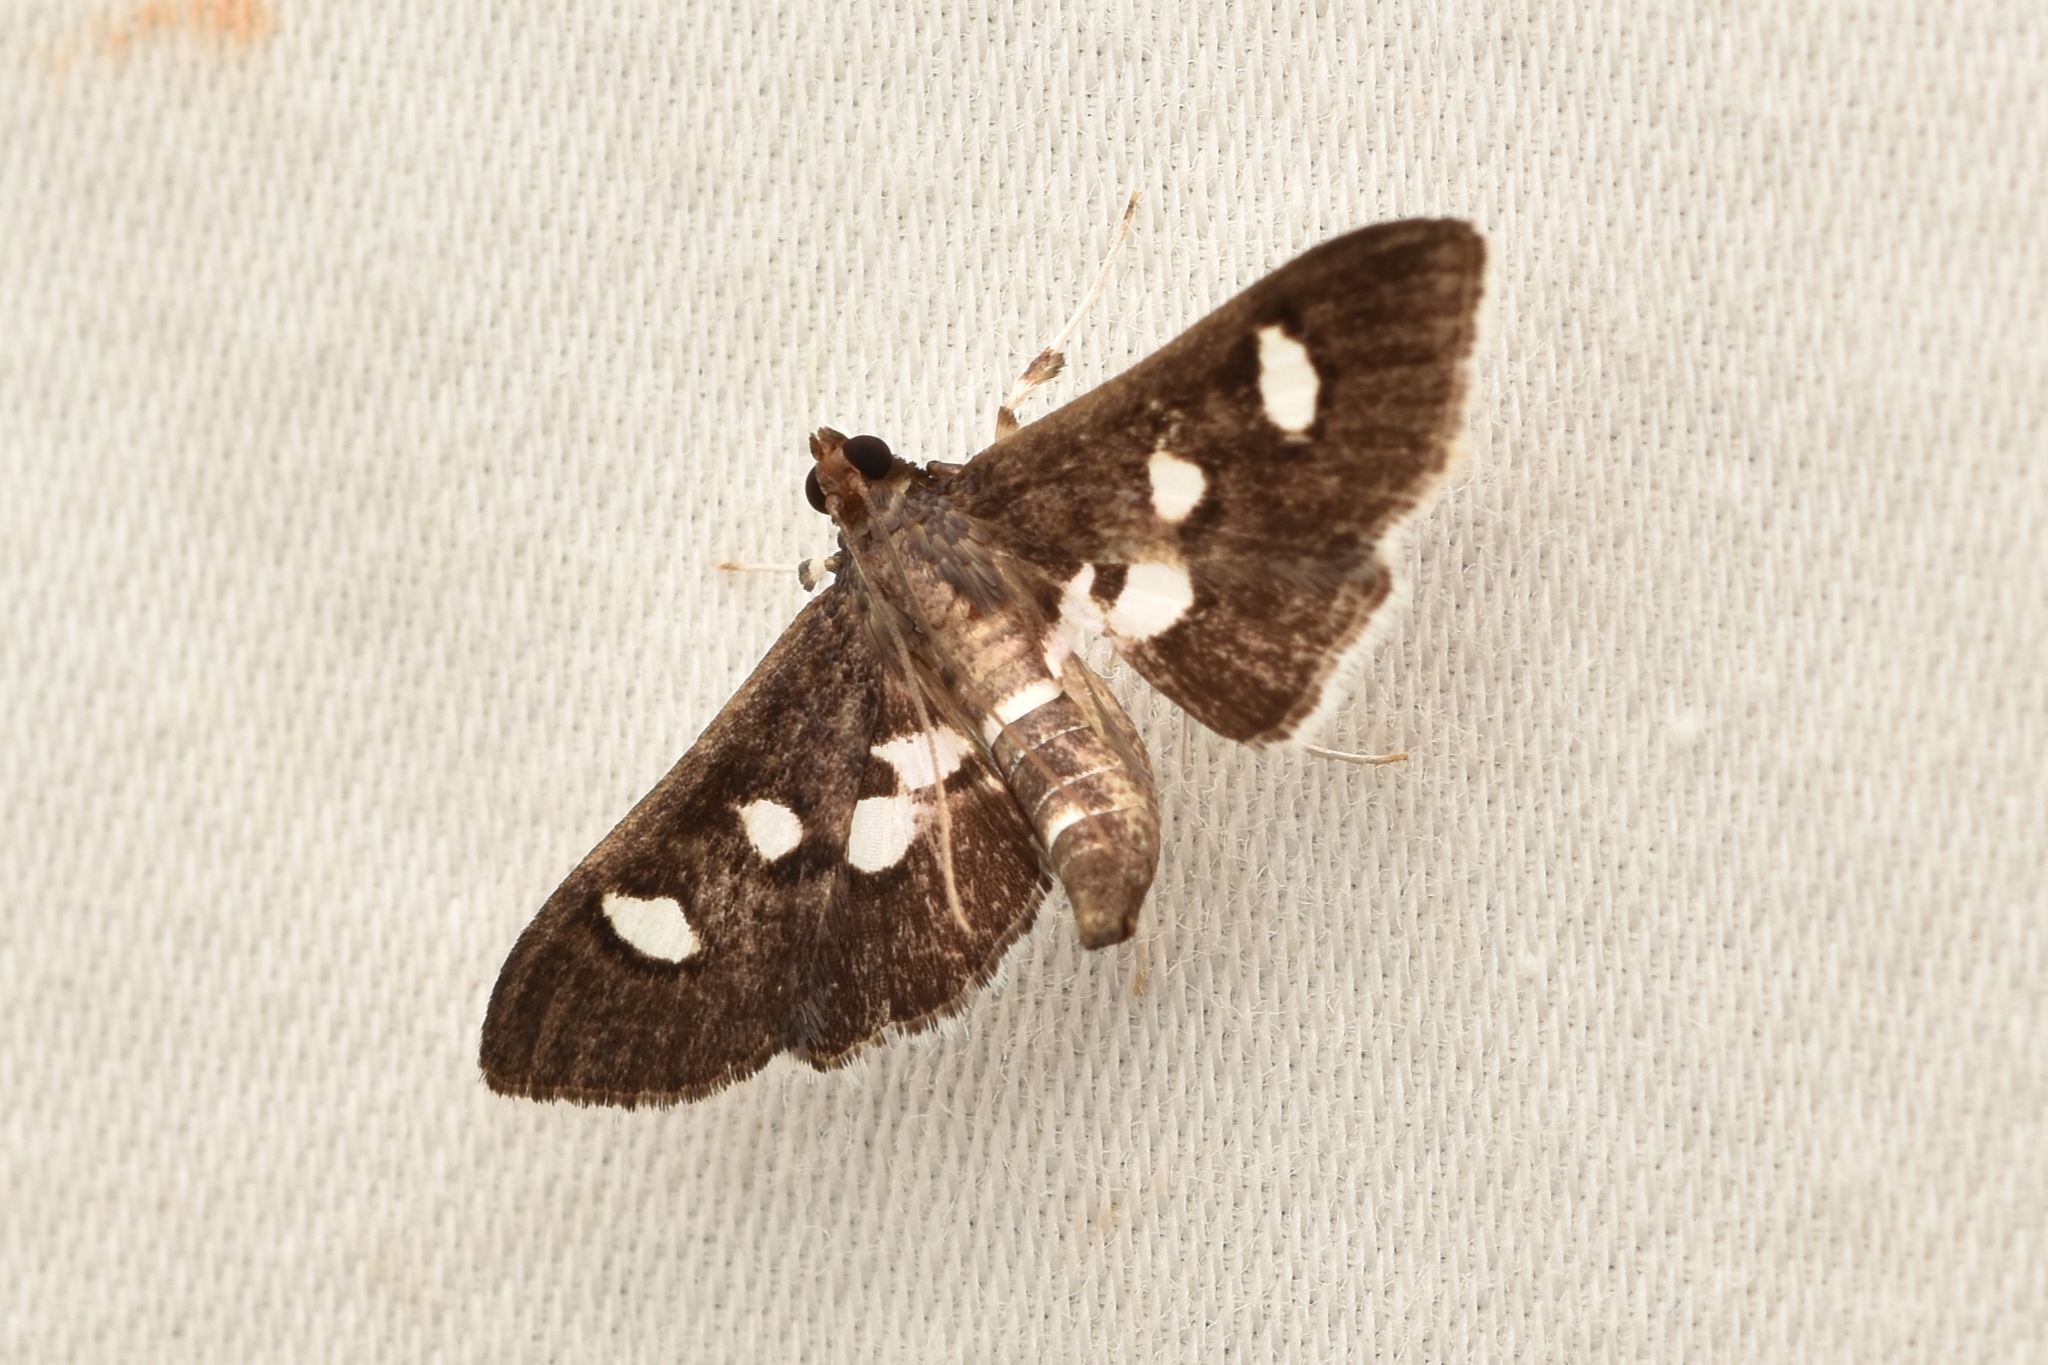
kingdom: Animalia
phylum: Arthropoda
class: Insecta
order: Lepidoptera
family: Crambidae
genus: Desmia
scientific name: Desmia funeralis
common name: Grape leaf folder moth
